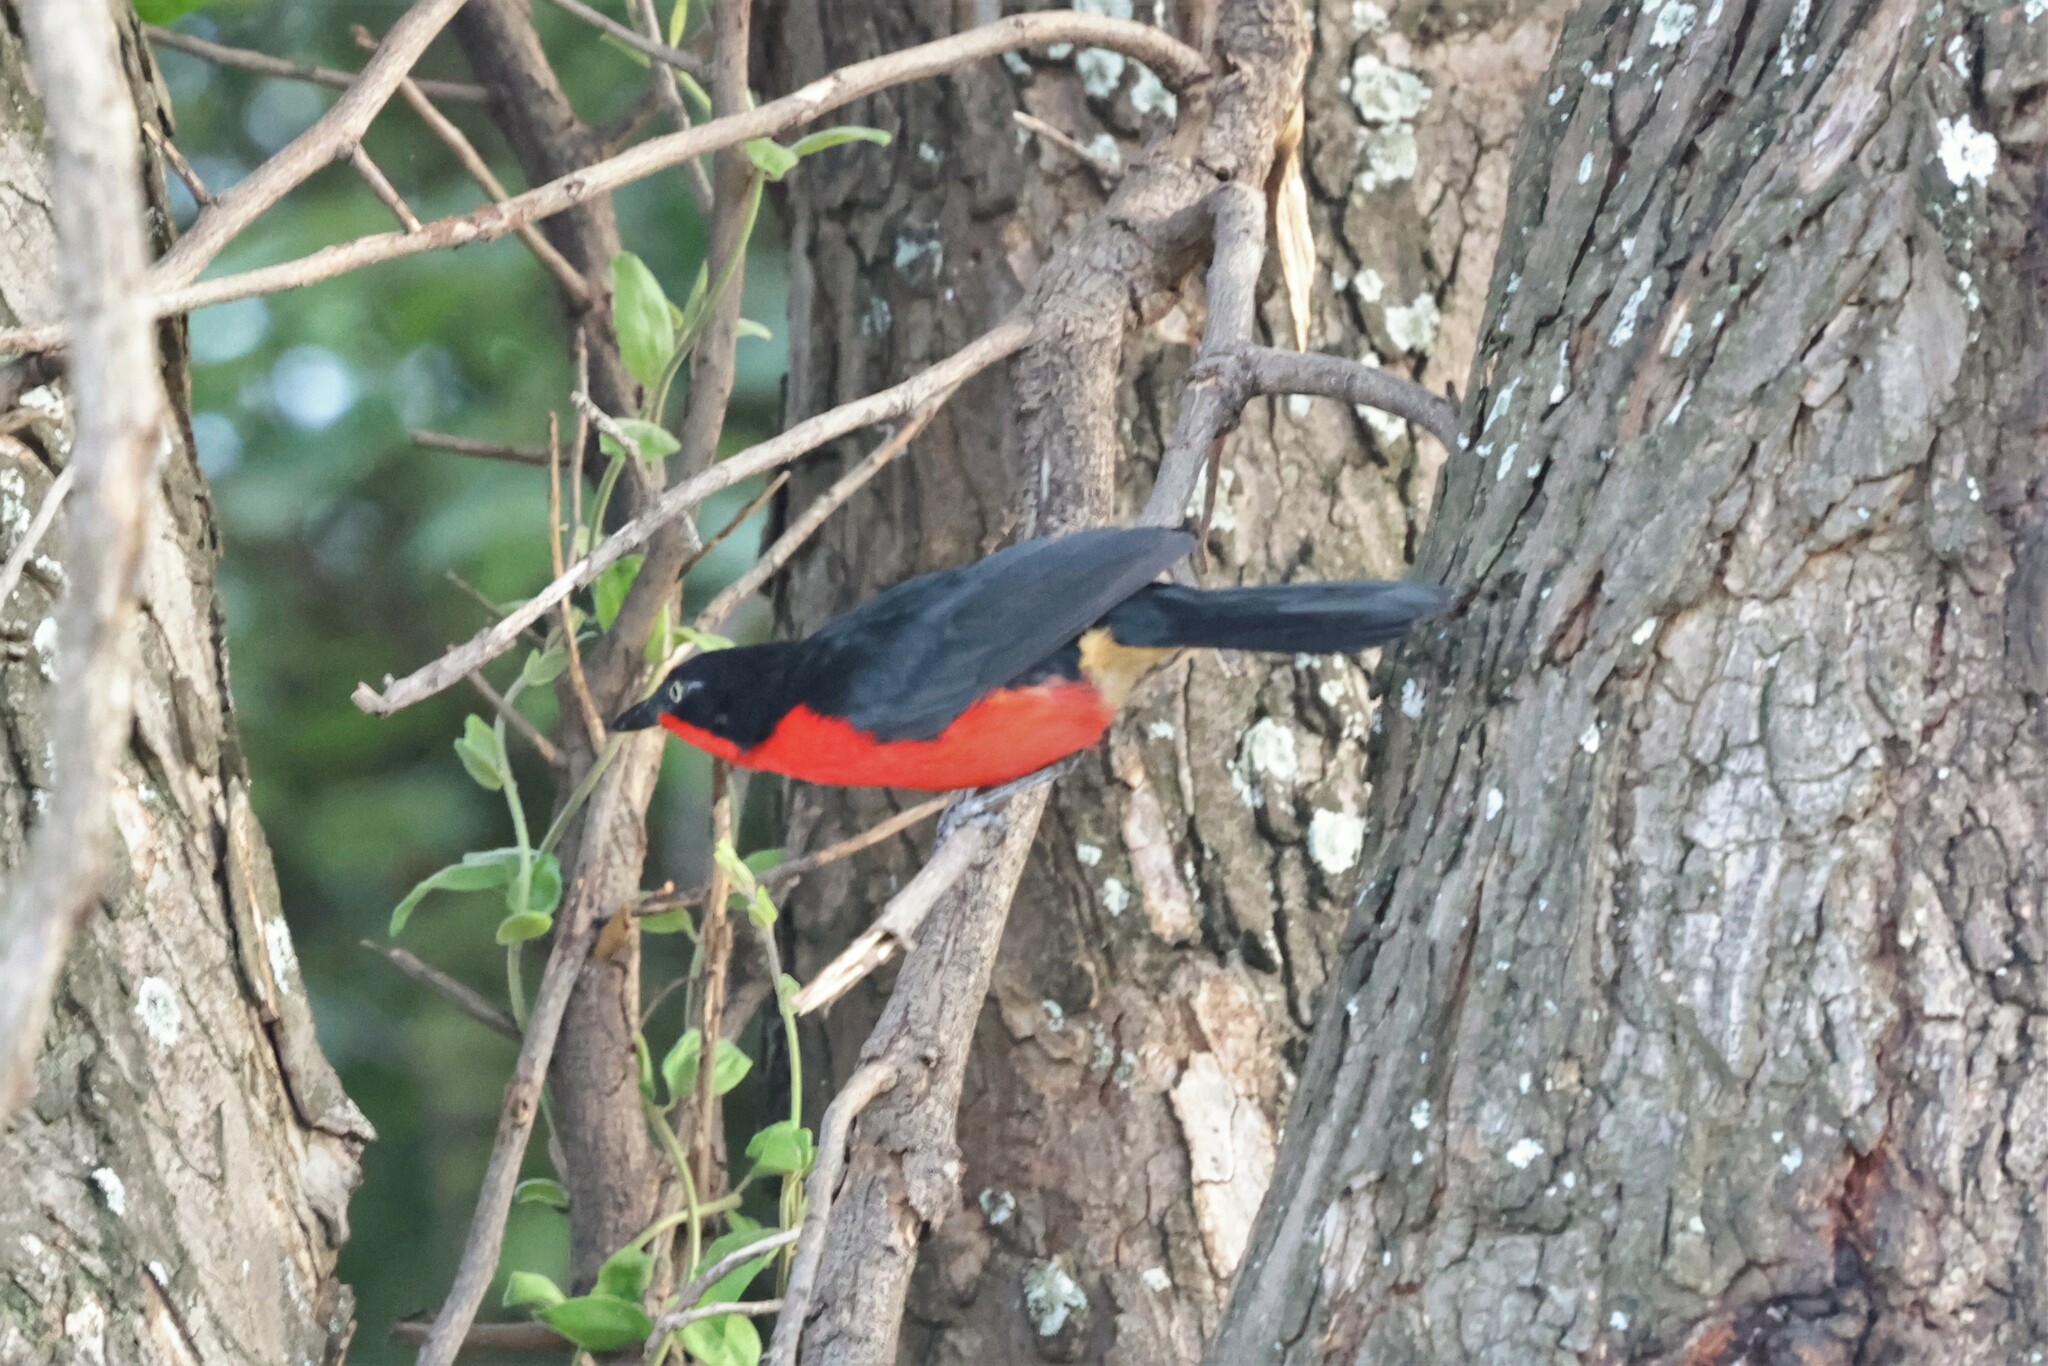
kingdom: Animalia
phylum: Chordata
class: Aves
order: Passeriformes
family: Malaconotidae
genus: Laniarius
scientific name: Laniarius erythrogaster
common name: Black-headed gonolek
